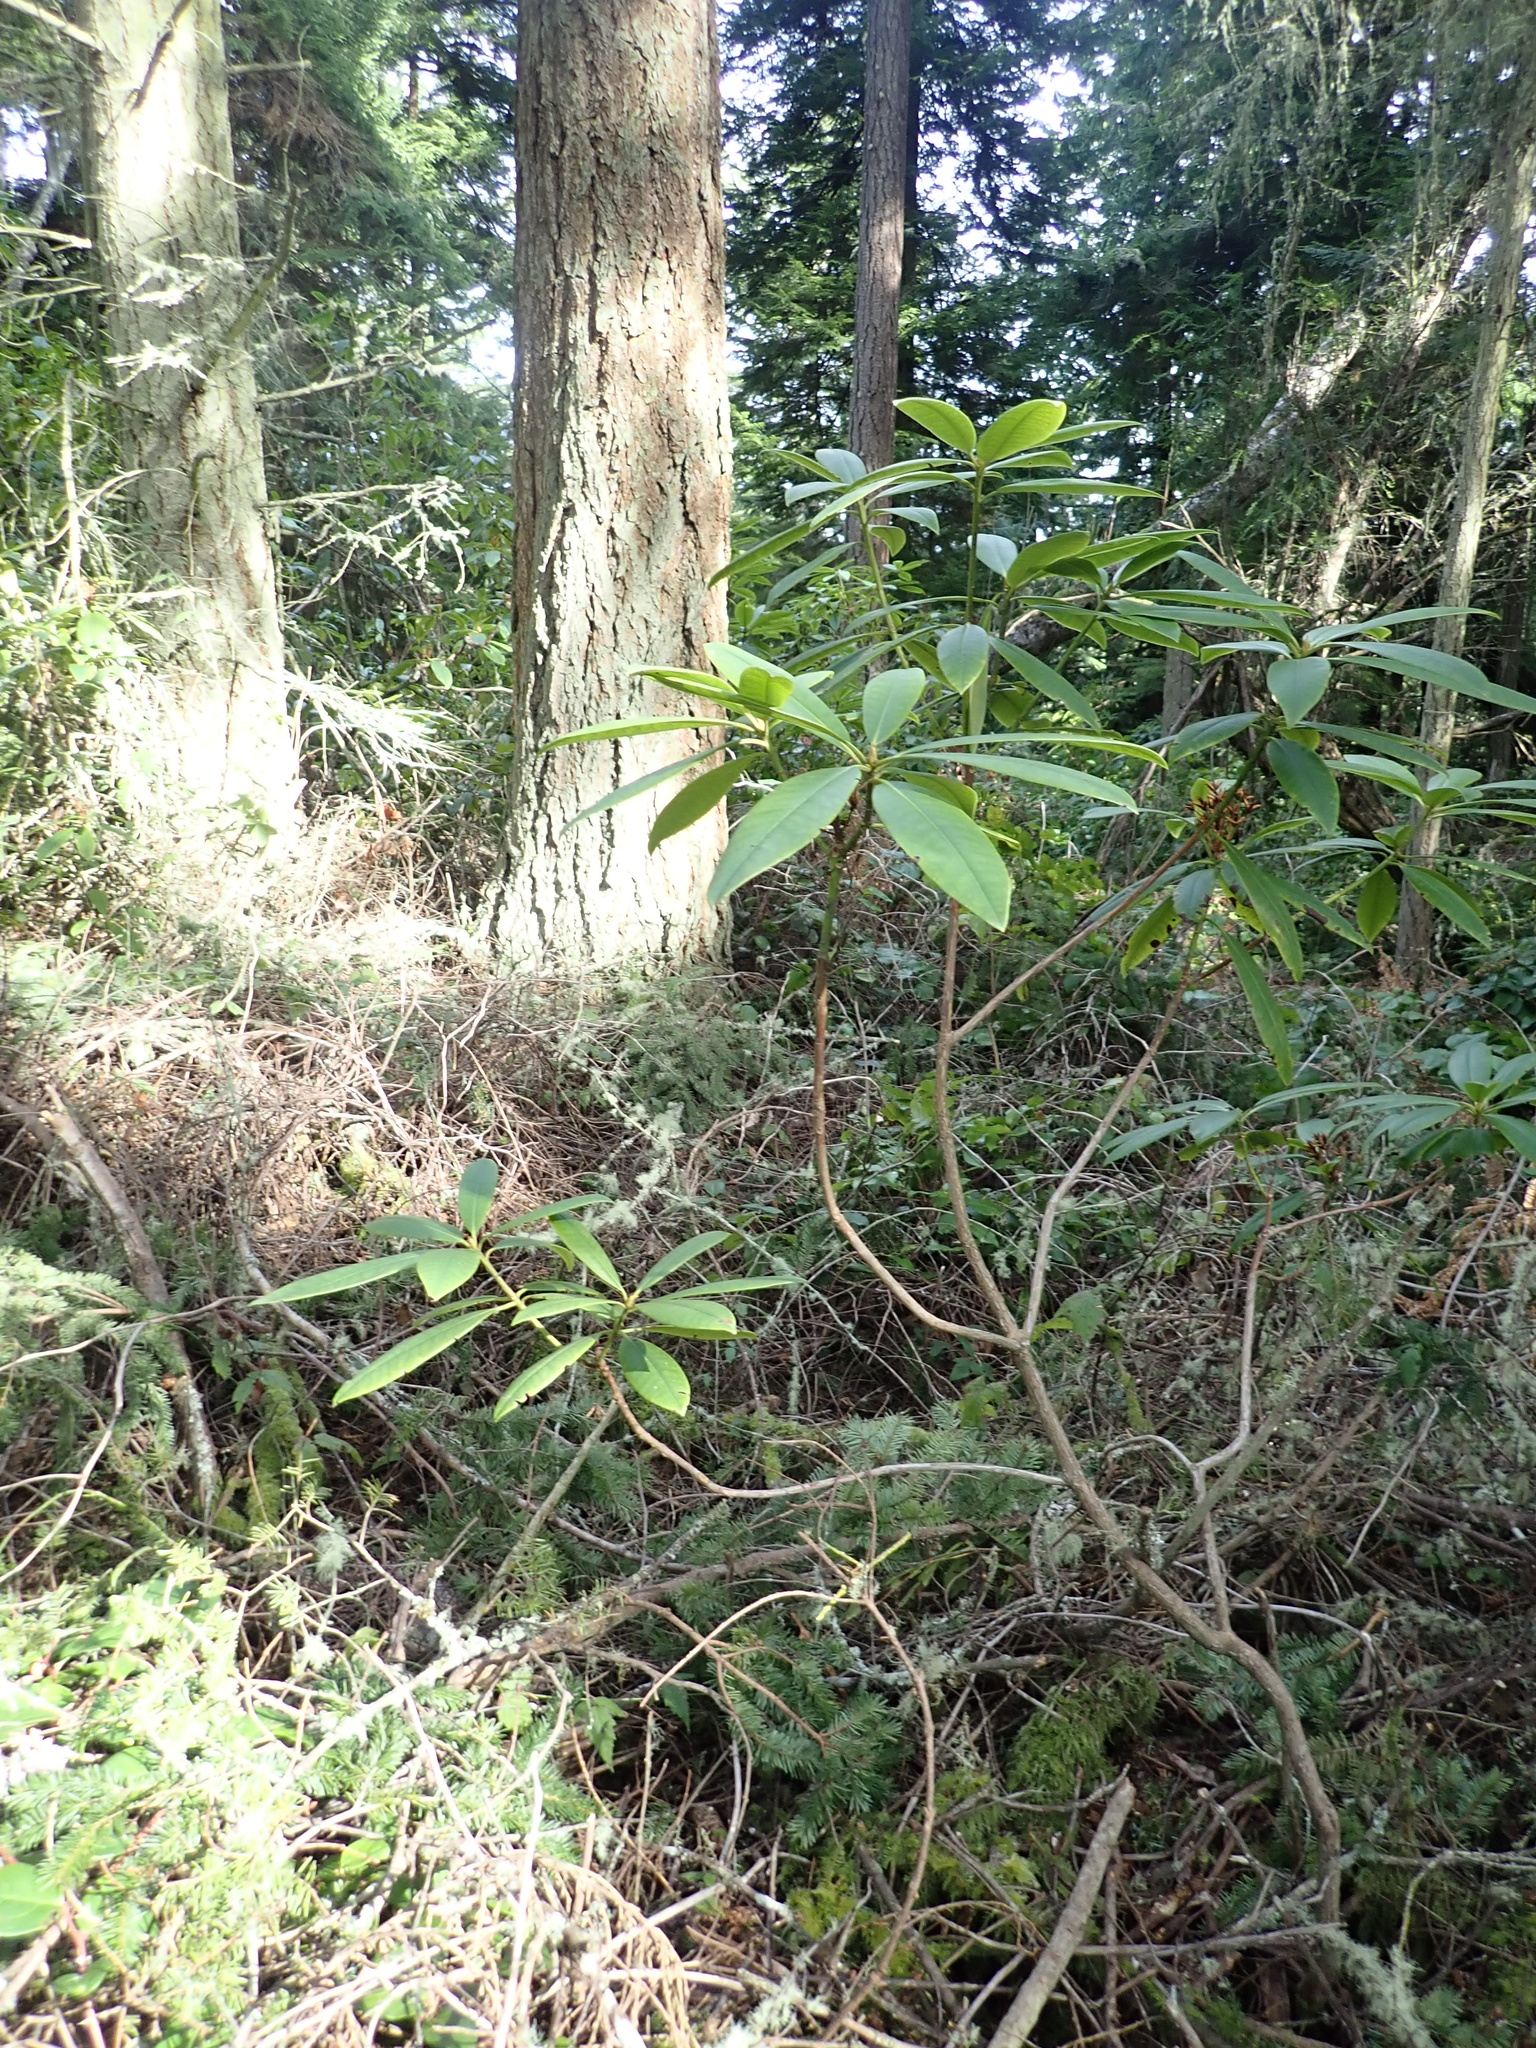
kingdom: Plantae
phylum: Tracheophyta
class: Magnoliopsida
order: Ericales
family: Ericaceae
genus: Rhododendron
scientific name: Rhododendron macrophyllum
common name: California rose bay
